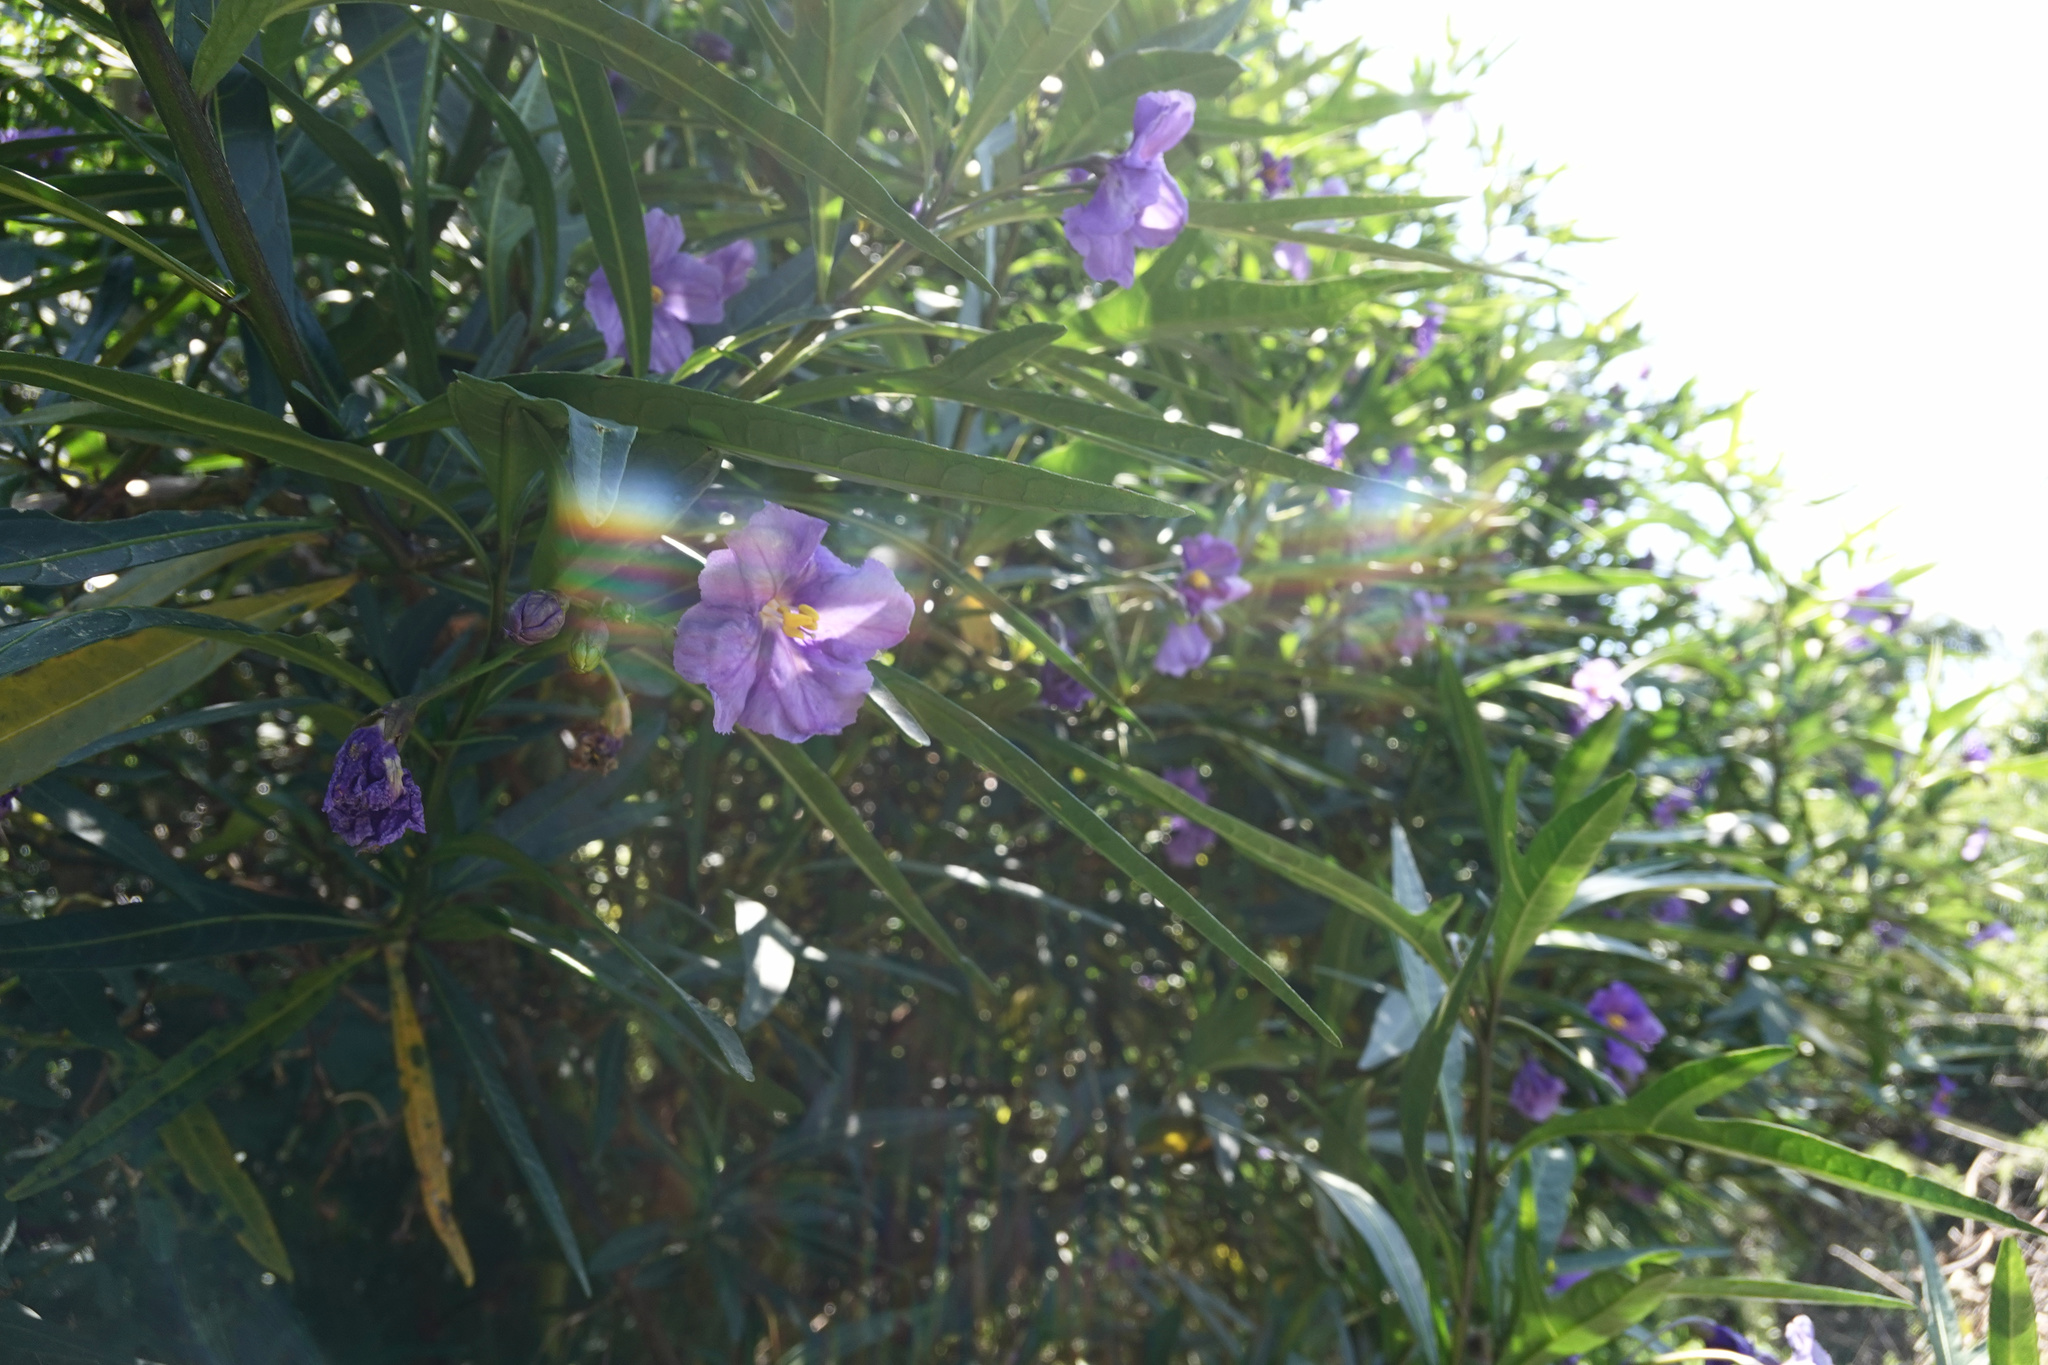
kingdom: Plantae
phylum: Tracheophyta
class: Magnoliopsida
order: Solanales
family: Solanaceae
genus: Solanum
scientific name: Solanum laciniatum
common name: Kangaroo-apple
